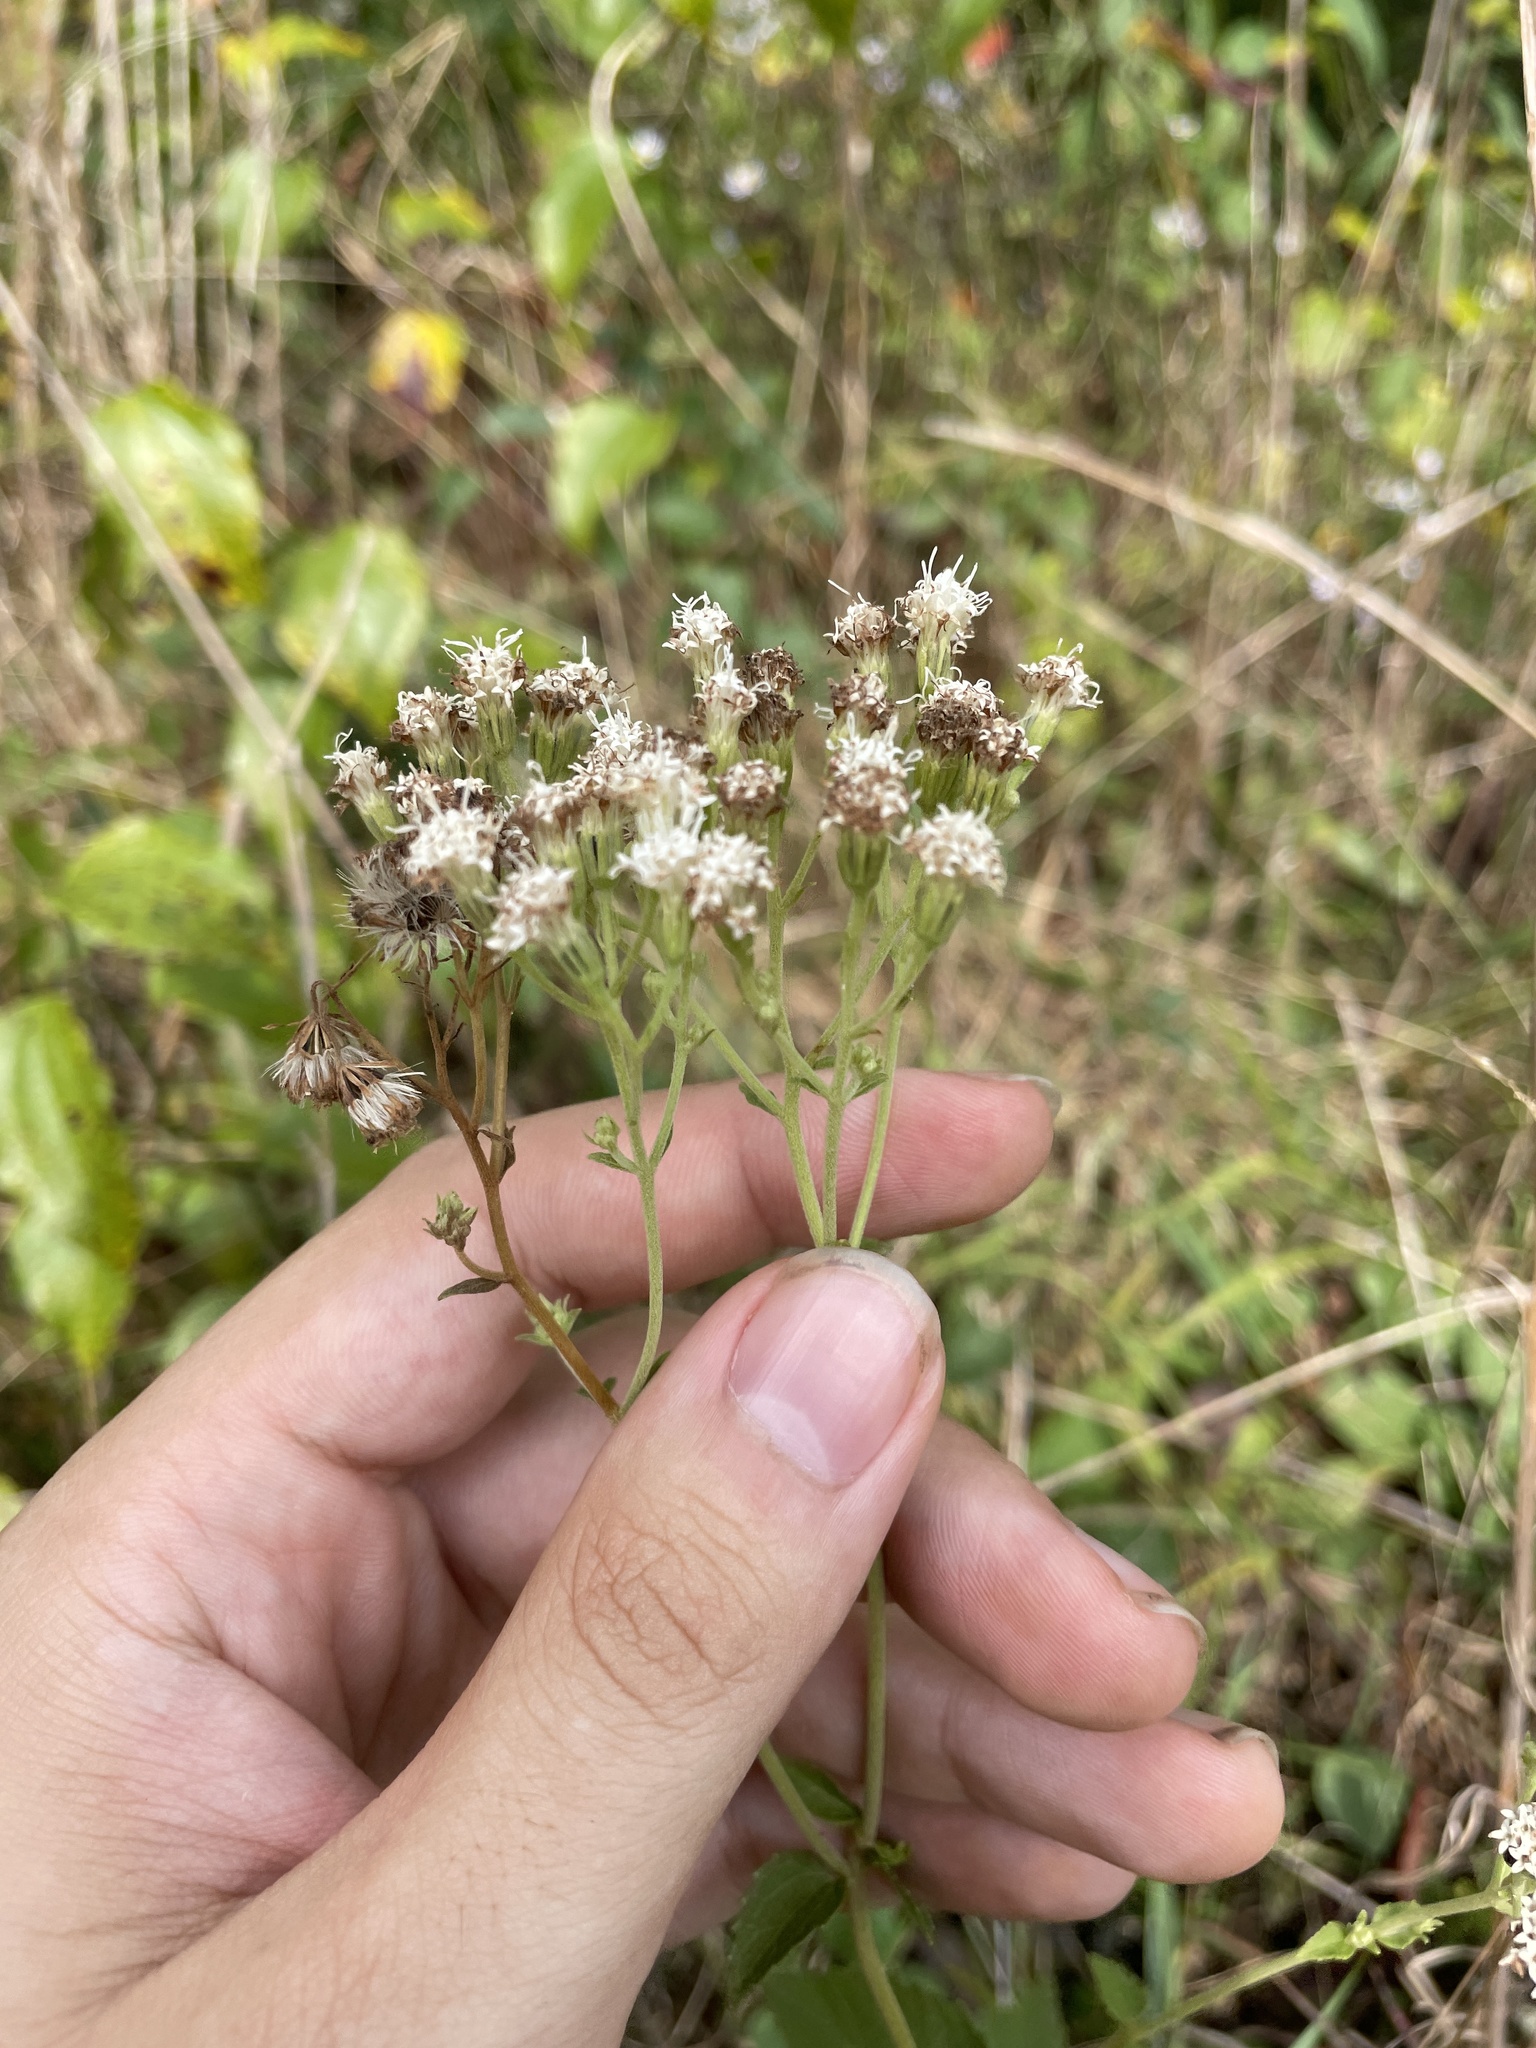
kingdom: Plantae
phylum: Tracheophyta
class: Magnoliopsida
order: Asterales
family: Asteraceae
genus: Ageratina
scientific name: Ageratina aromatica
